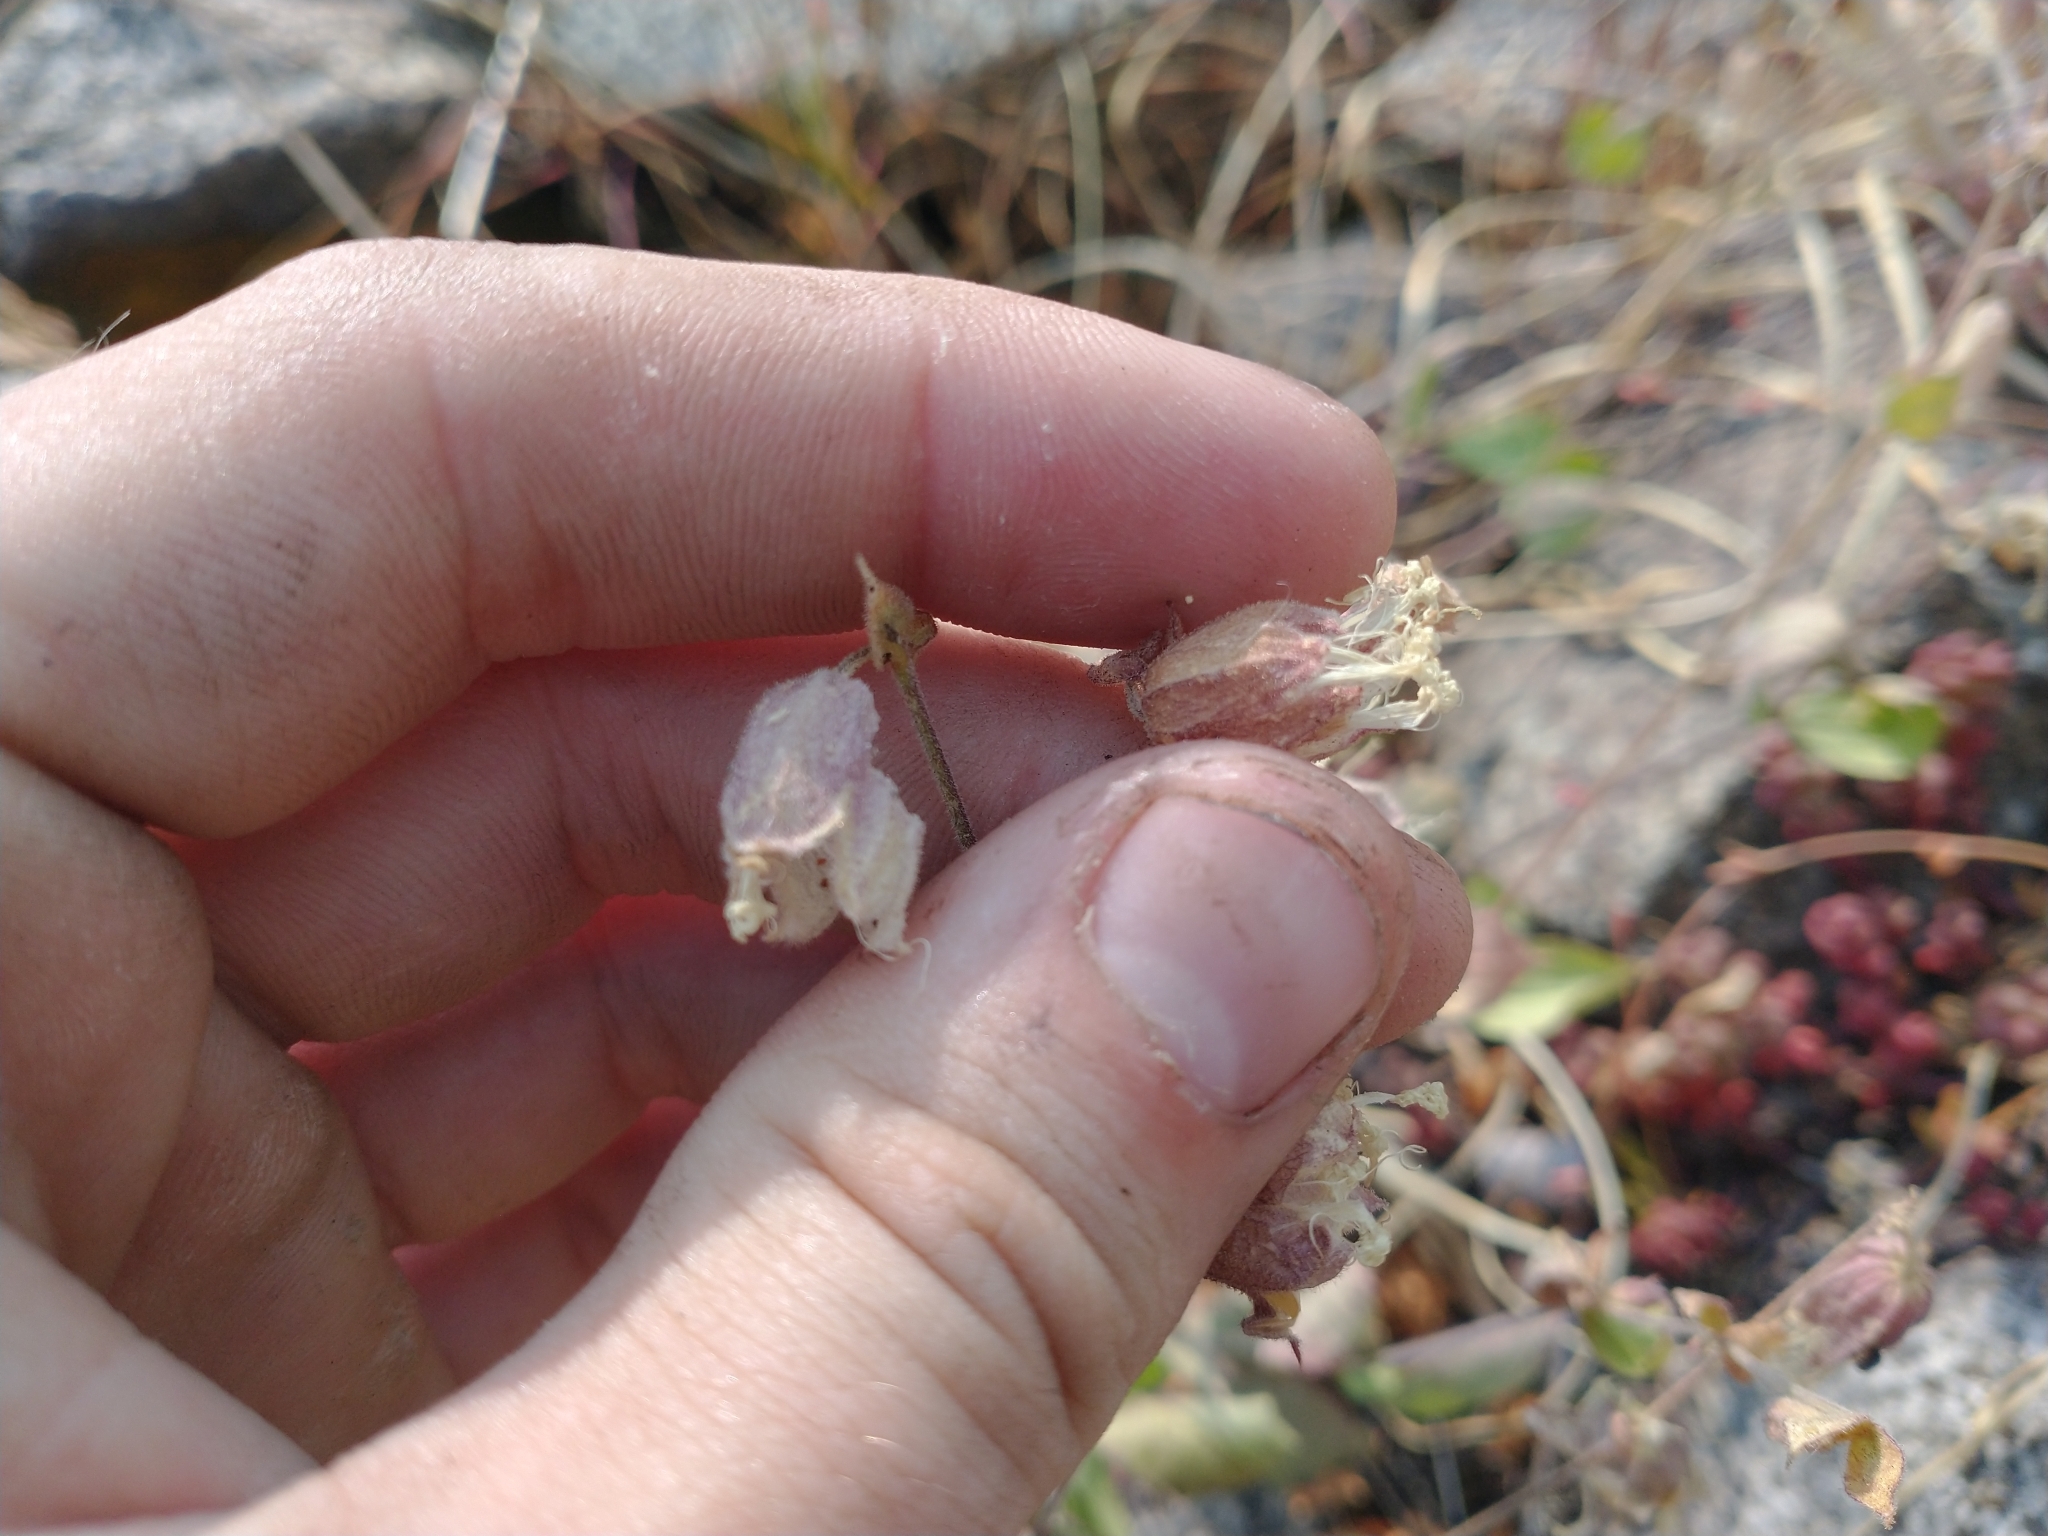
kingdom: Plantae
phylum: Tracheophyta
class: Magnoliopsida
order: Caryophyllales
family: Caryophyllaceae
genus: Silene
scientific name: Silene
